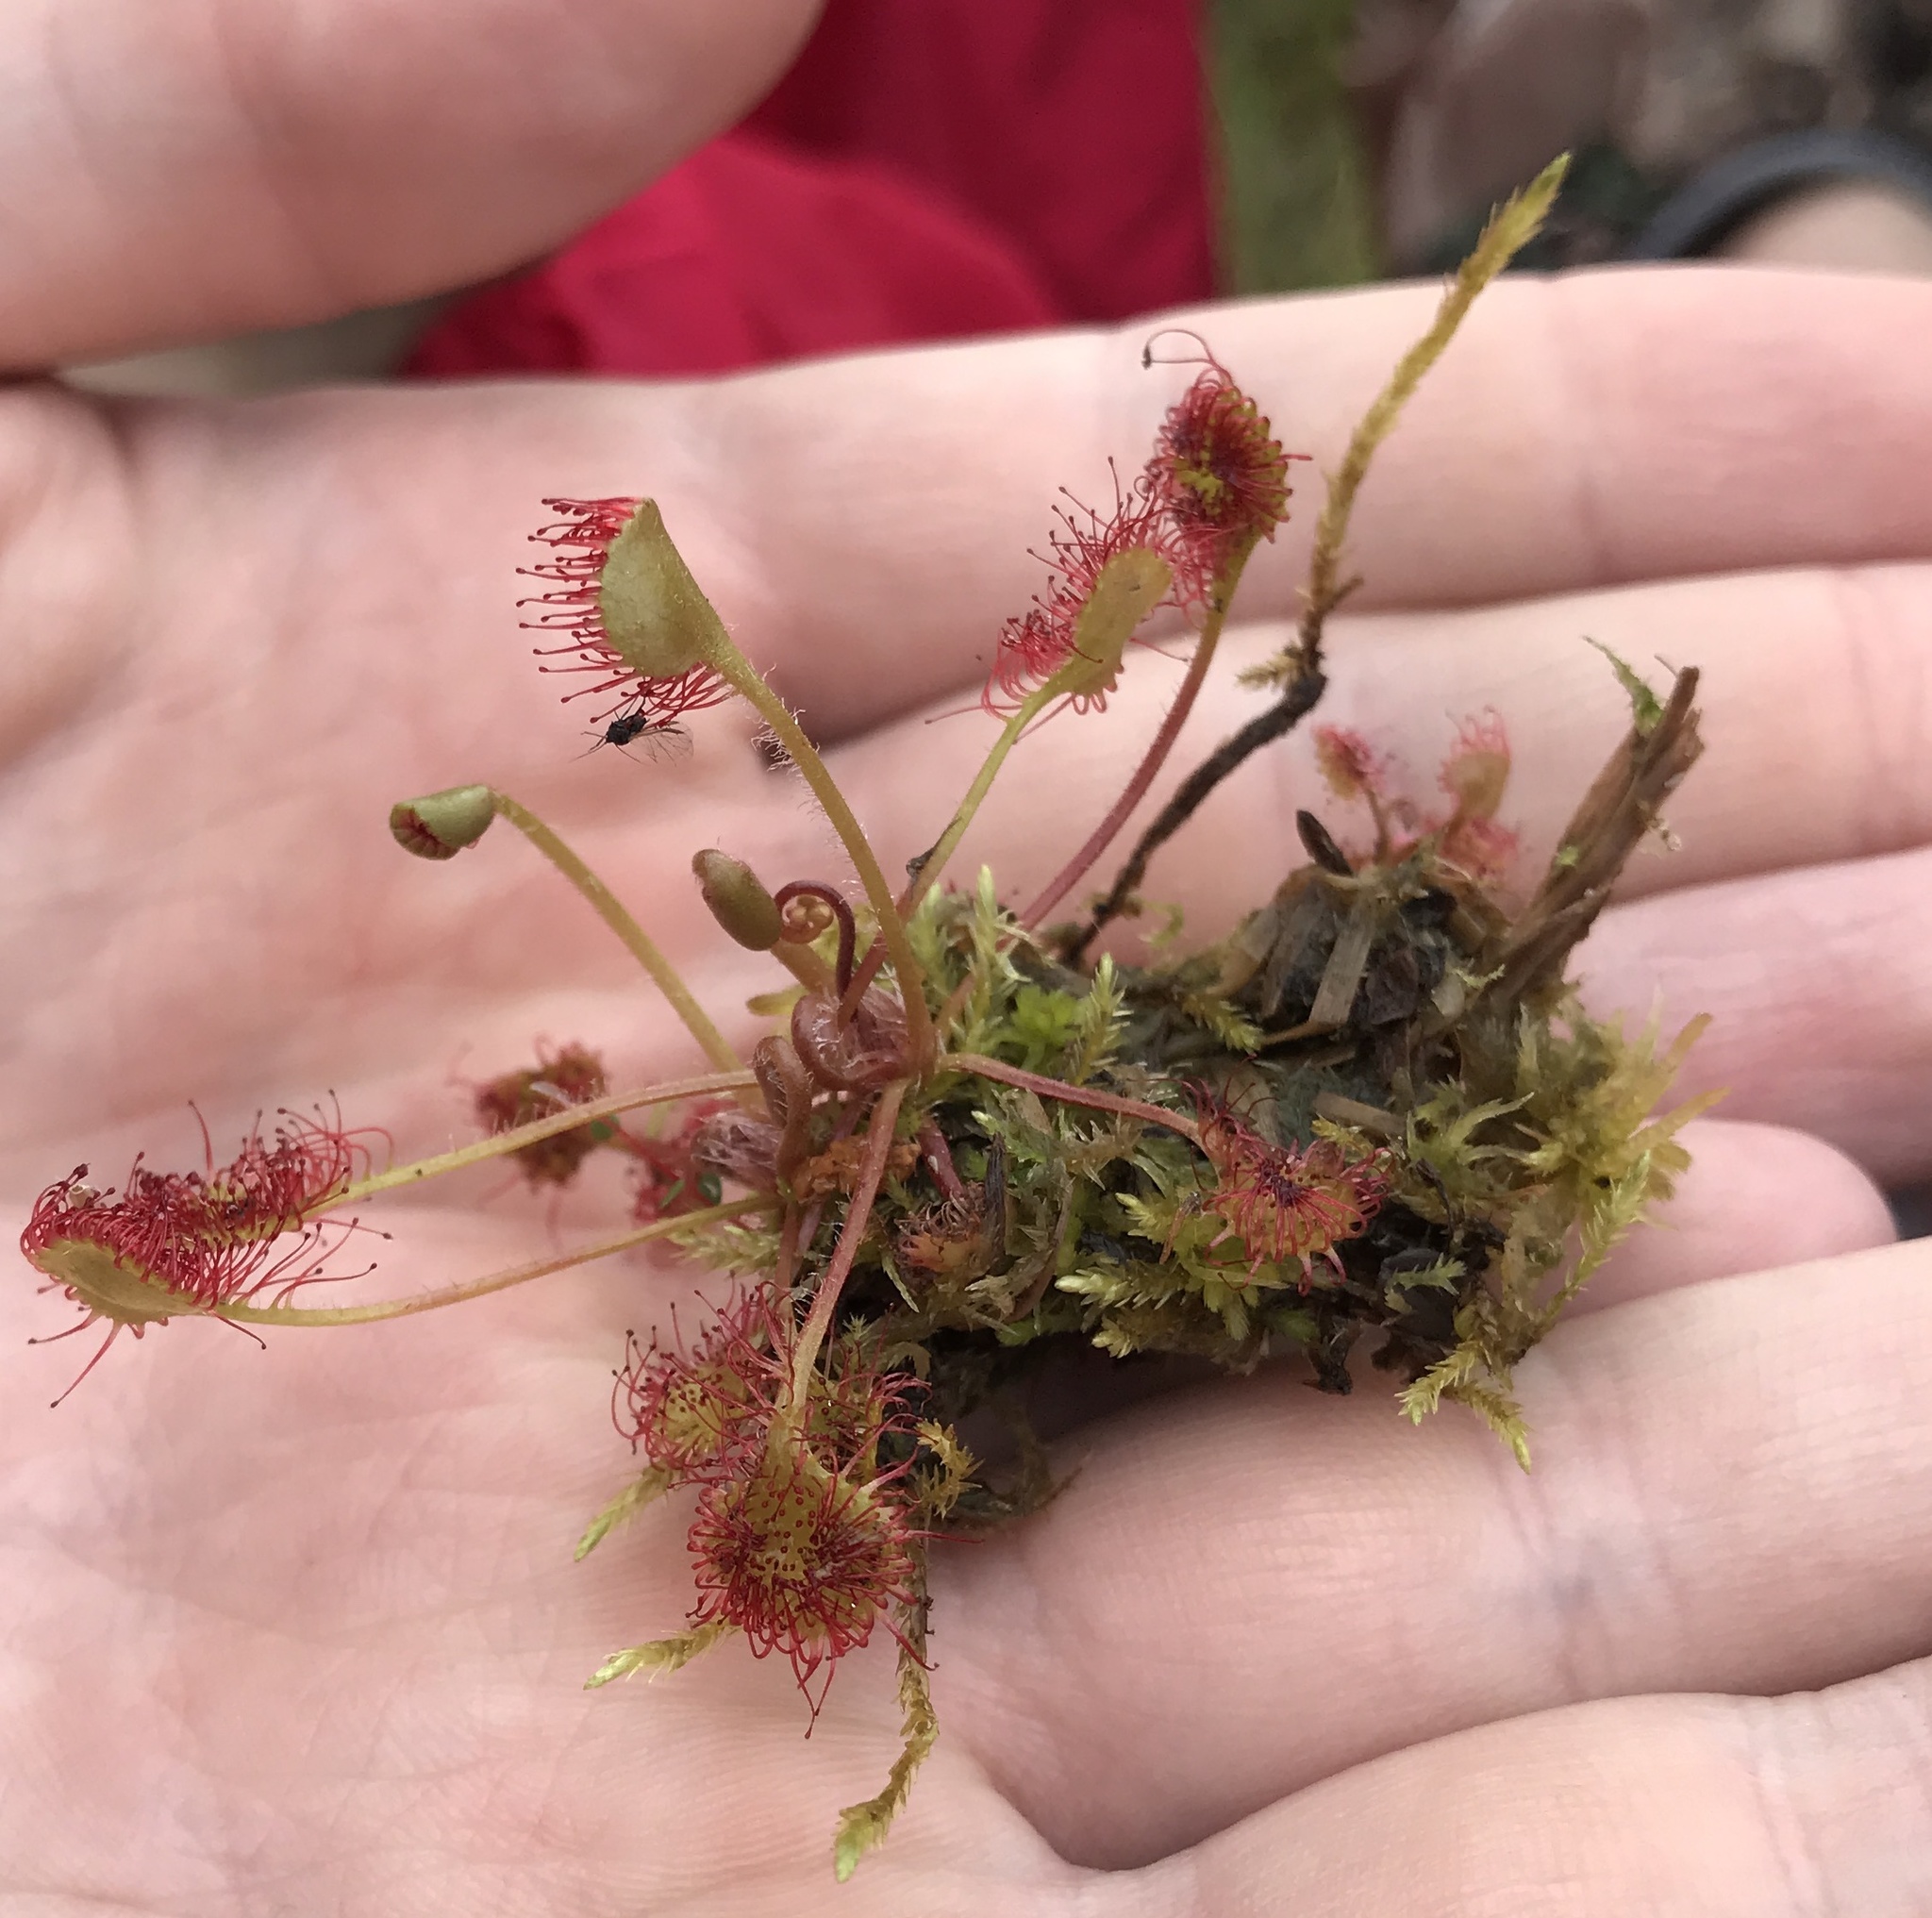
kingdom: Plantae
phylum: Tracheophyta
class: Magnoliopsida
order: Caryophyllales
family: Droseraceae
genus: Drosera
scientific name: Drosera rotundifolia
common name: Round-leaved sundew
